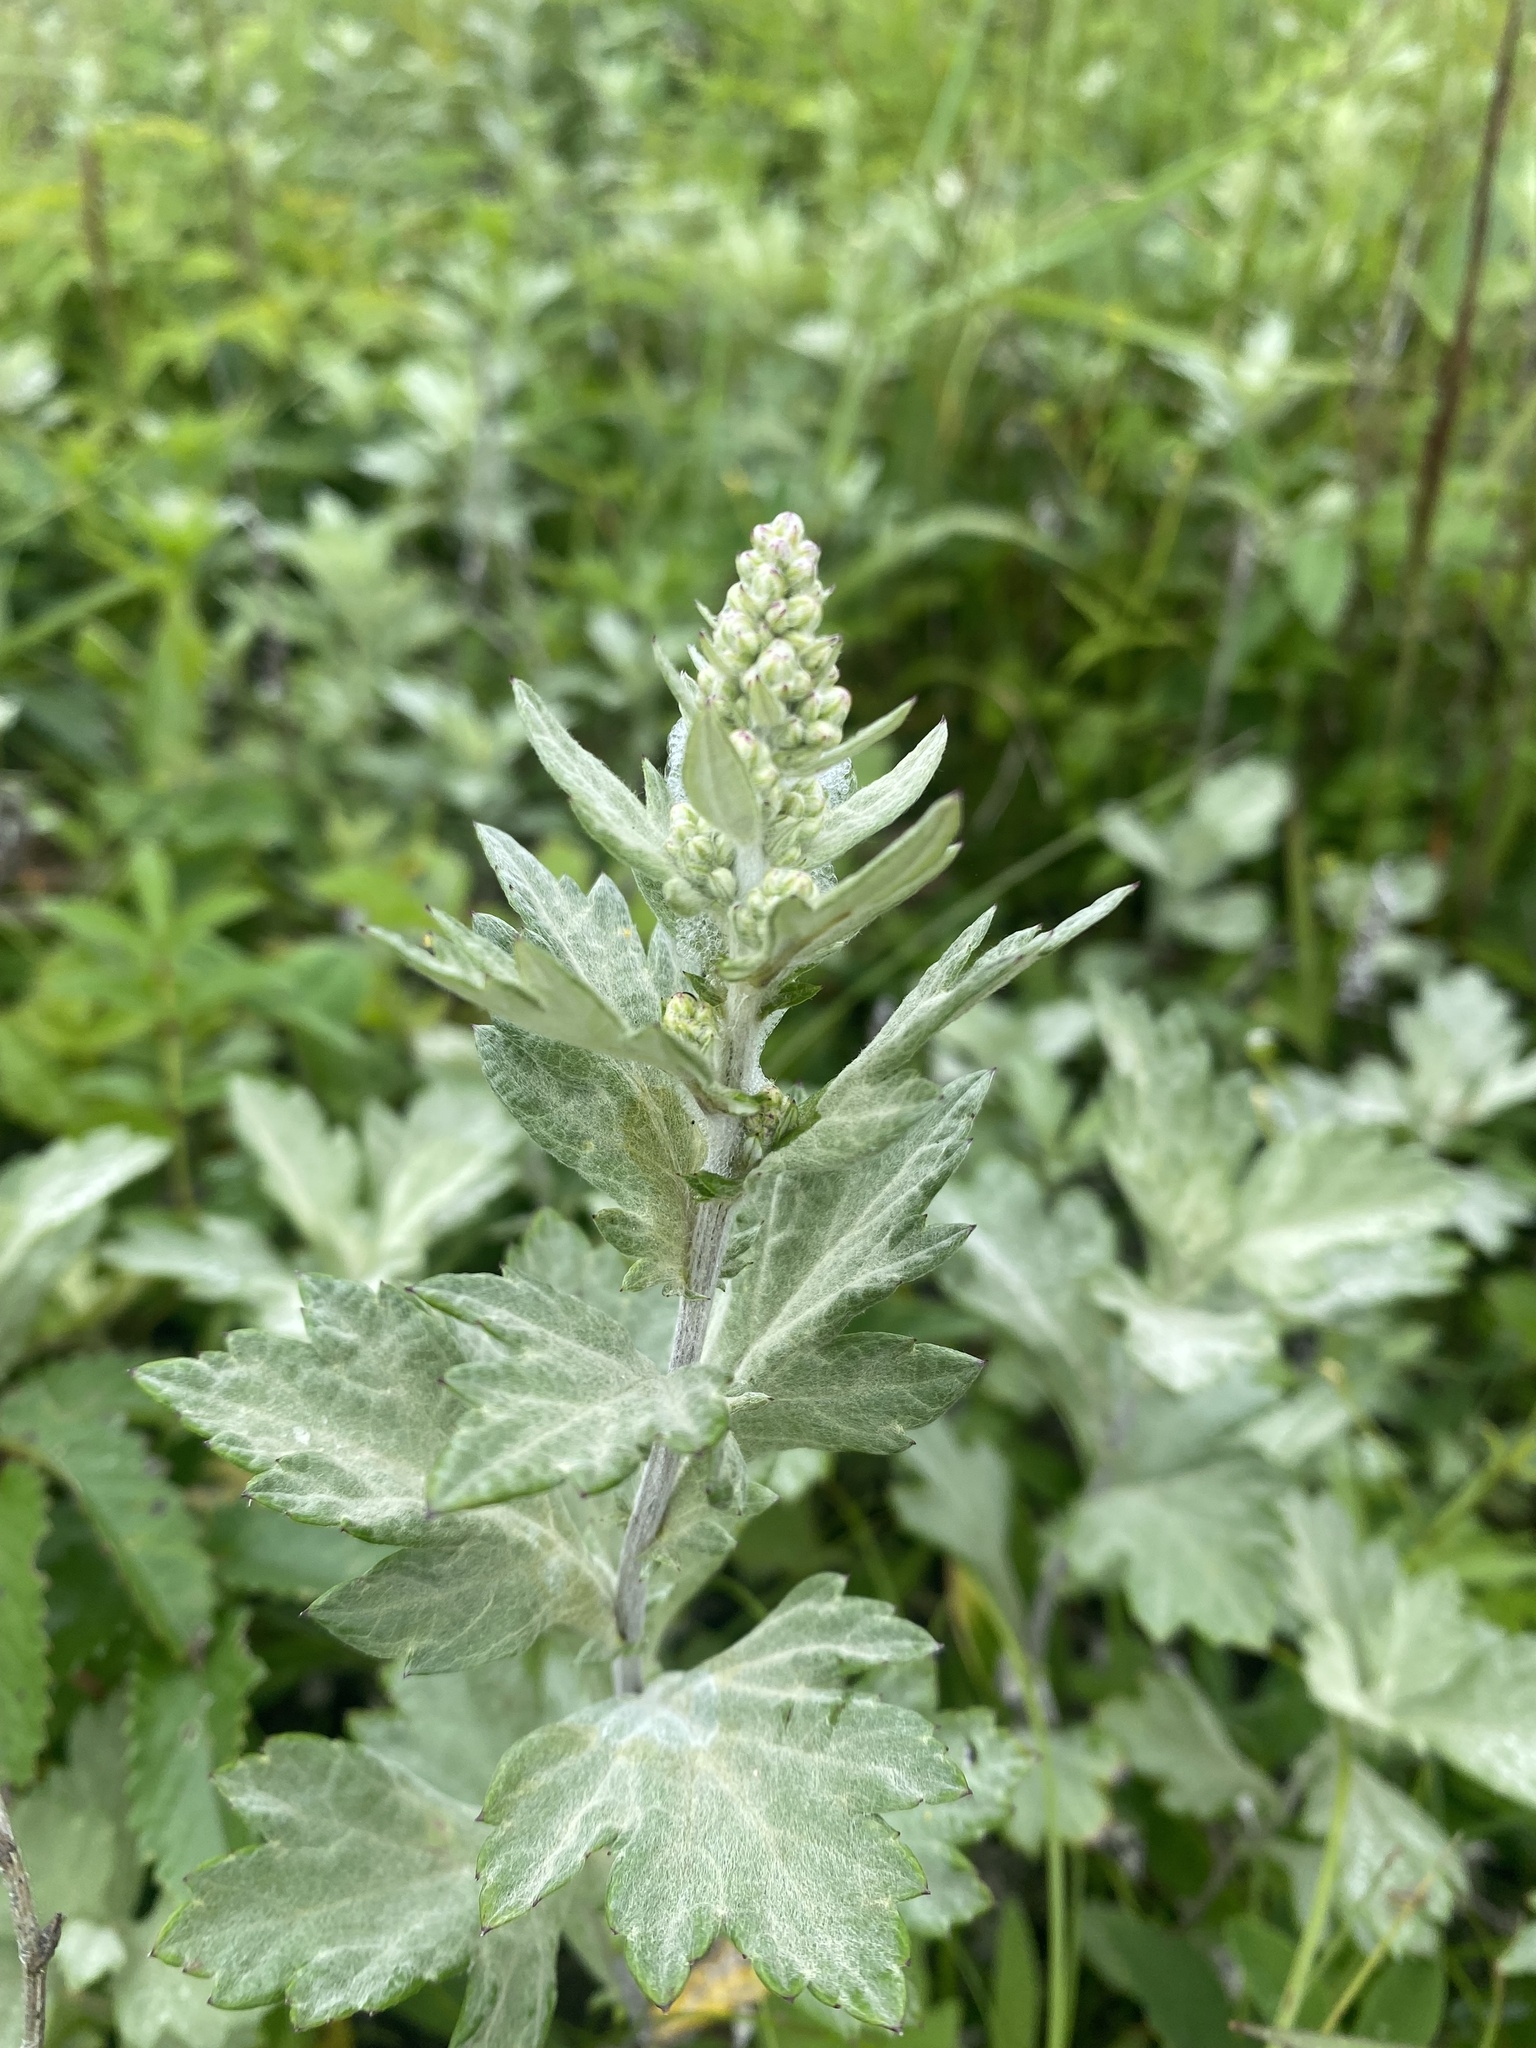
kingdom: Plantae
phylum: Tracheophyta
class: Magnoliopsida
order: Asterales
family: Asteraceae
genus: Artemisia
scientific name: Artemisia stelleriana
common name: Beach wormwood
